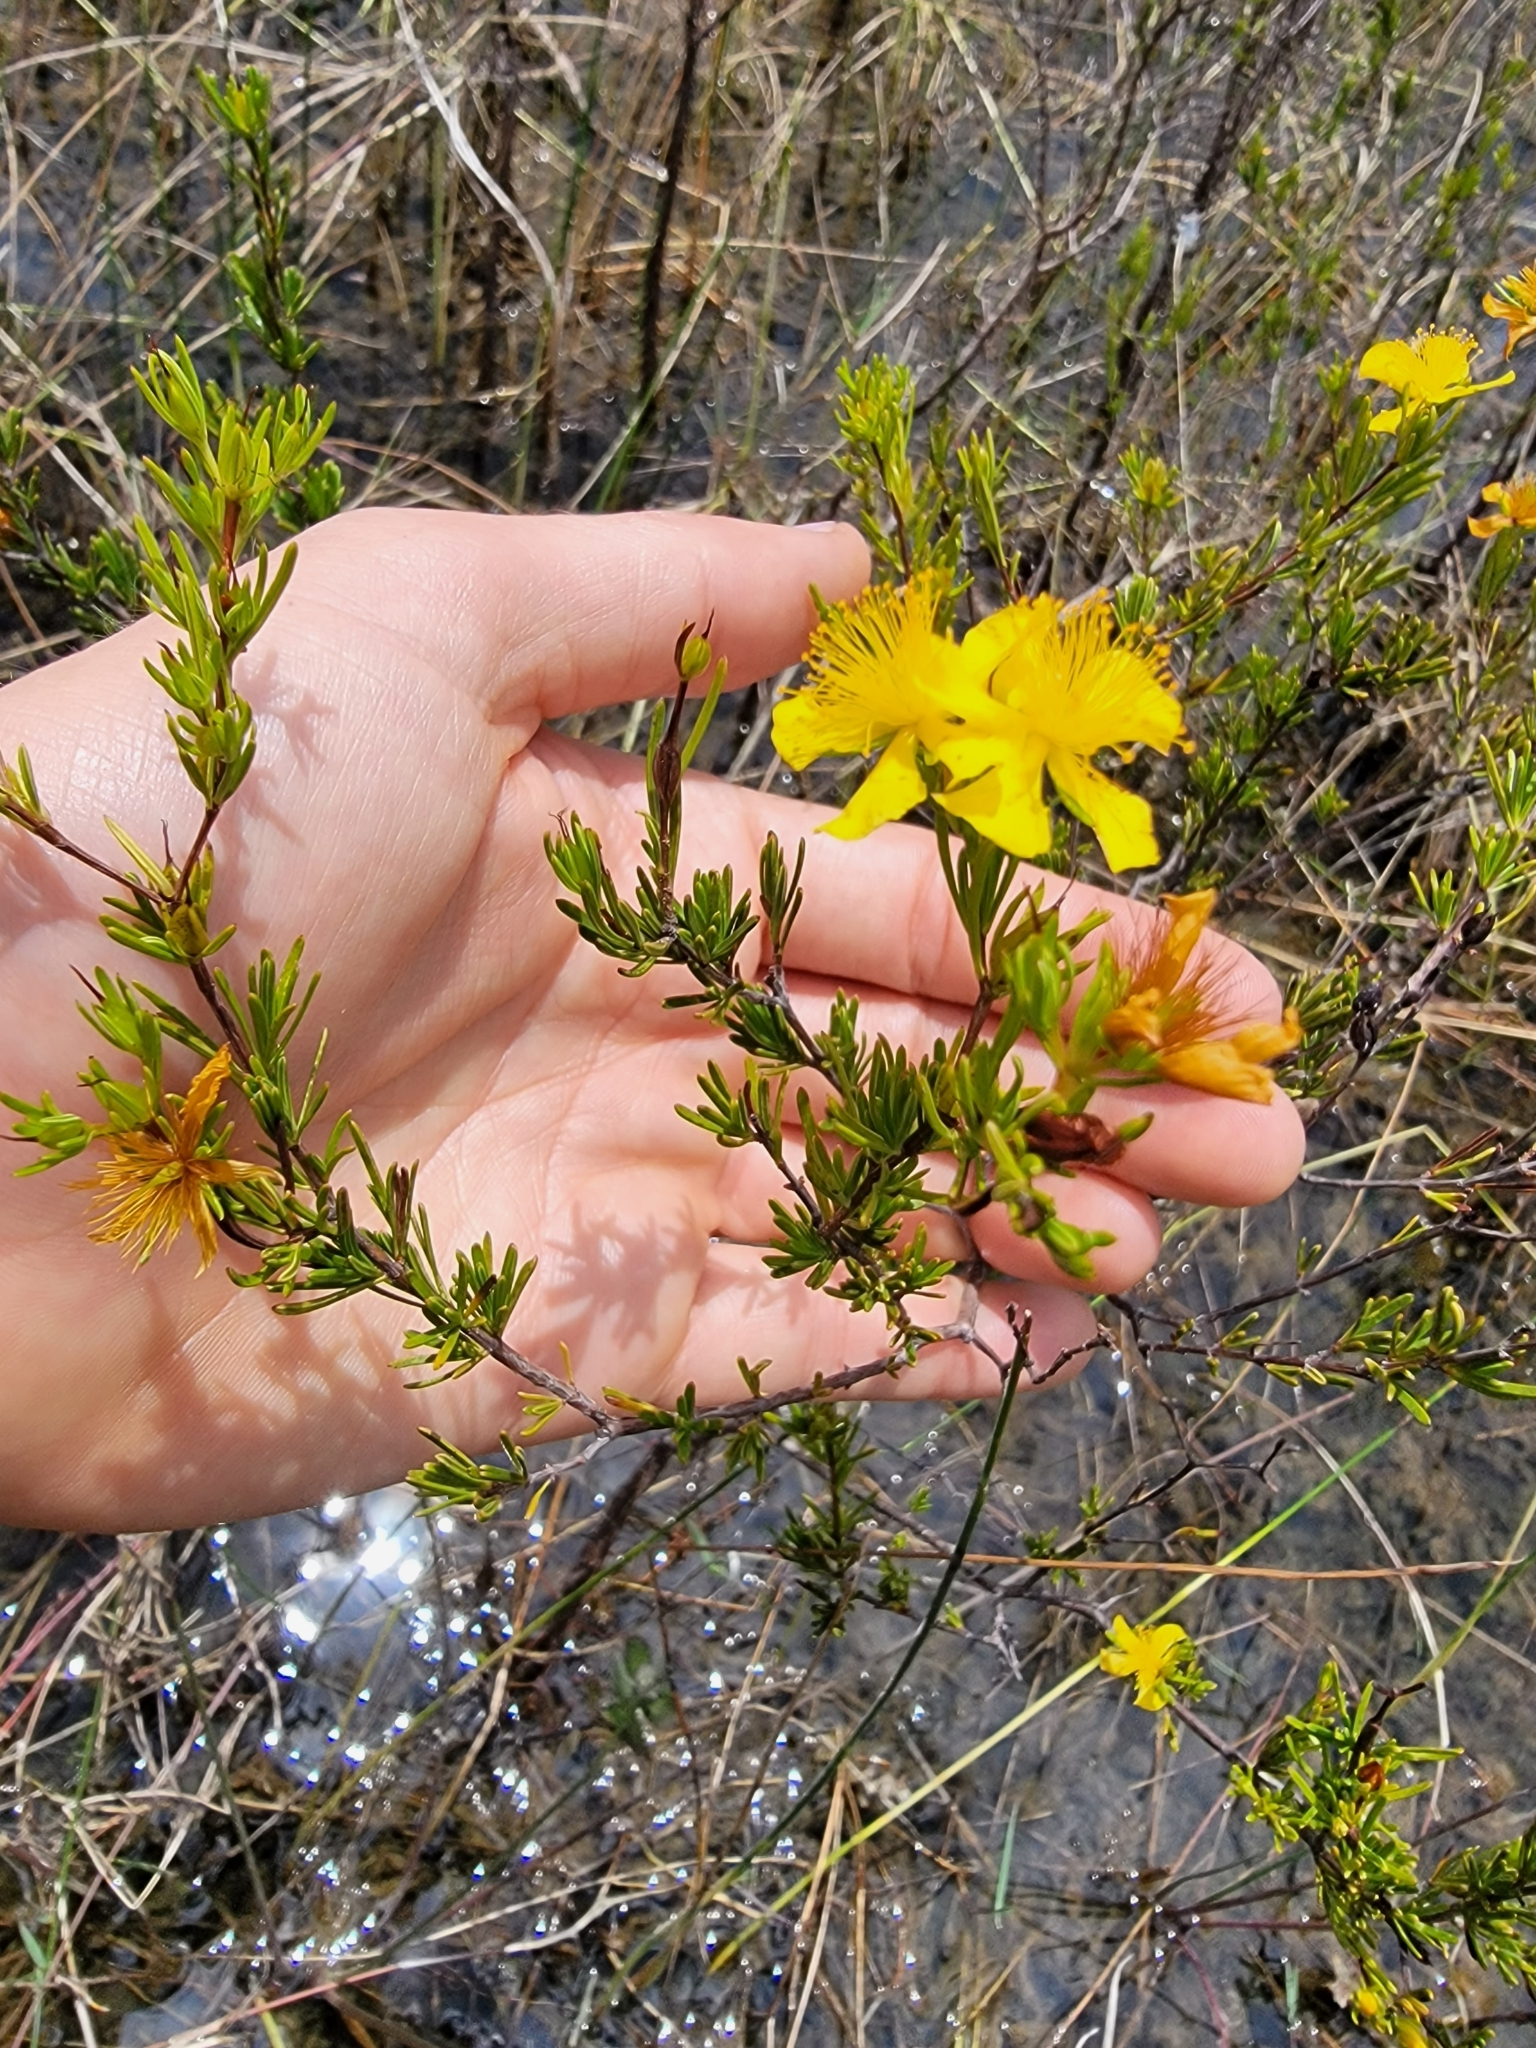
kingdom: Plantae
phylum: Tracheophyta
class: Magnoliopsida
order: Malpighiales
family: Hypericaceae
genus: Hypericum
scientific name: Hypericum fasciculatum
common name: Peelbark st. john's wort
